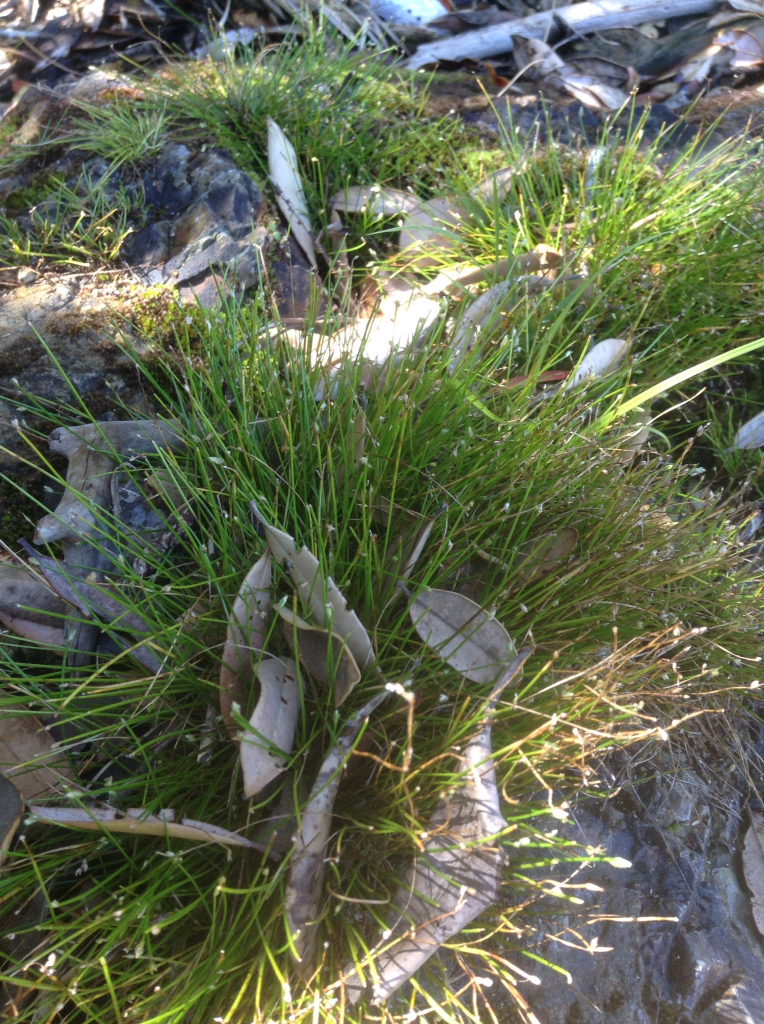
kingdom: Plantae
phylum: Tracheophyta
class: Liliopsida
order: Poales
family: Cyperaceae
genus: Isolepis
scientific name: Isolepis cernua
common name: Slender club-rush
